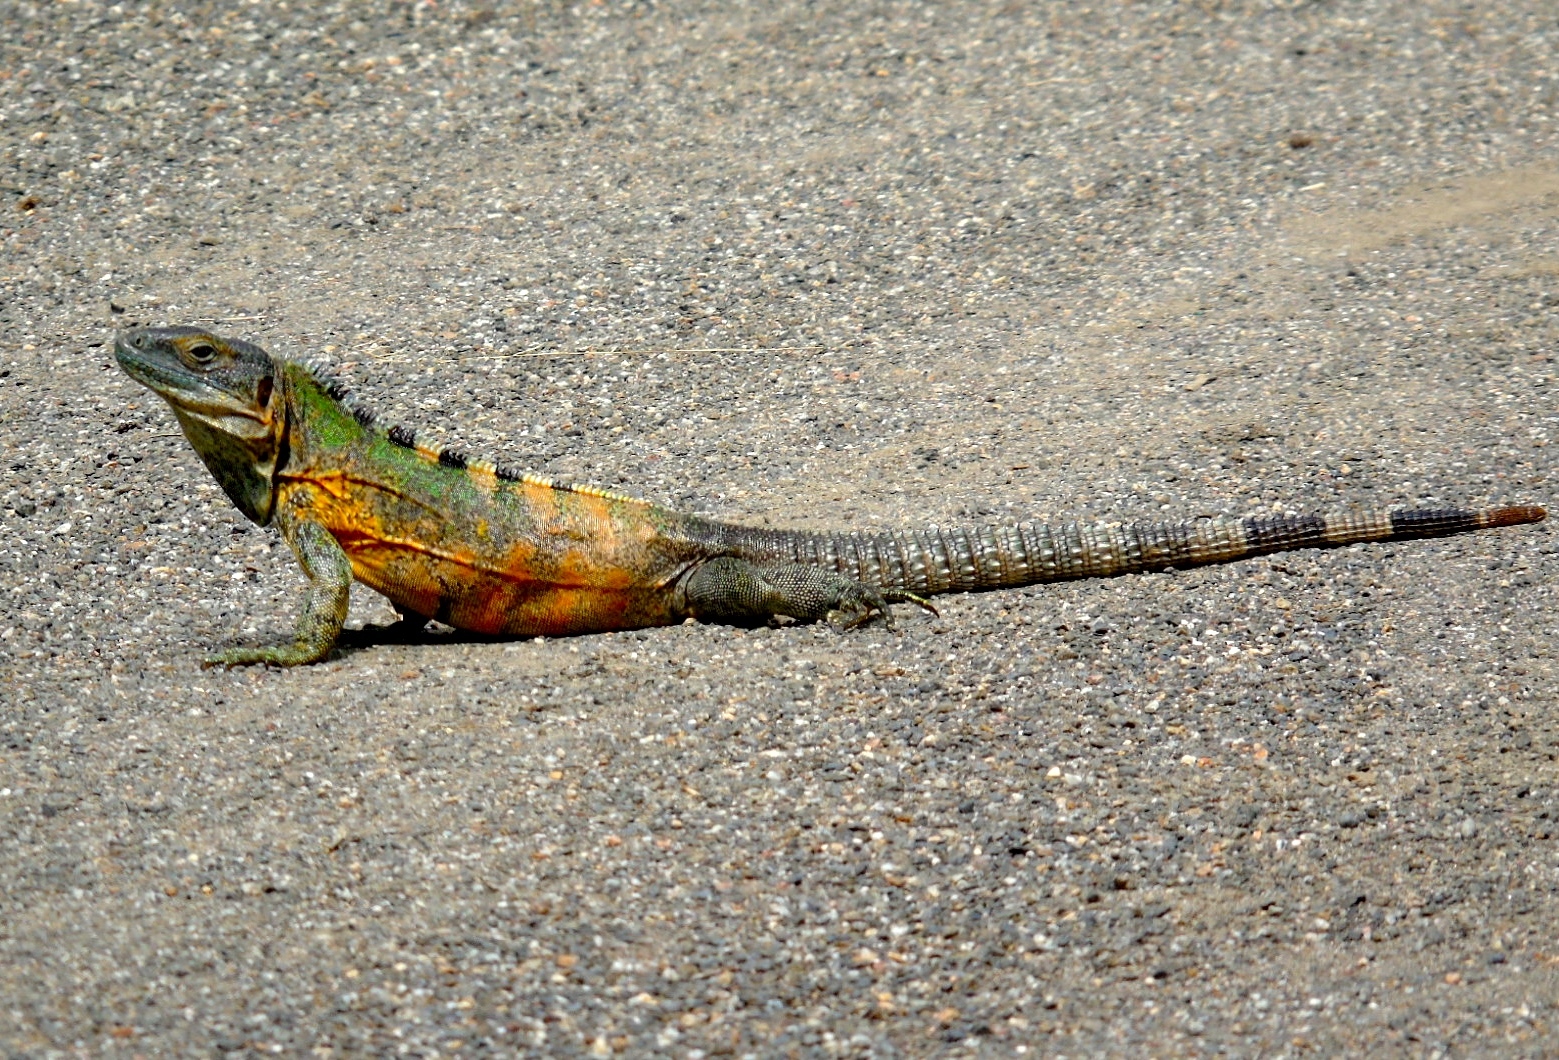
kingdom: Animalia
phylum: Chordata
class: Squamata
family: Iguanidae
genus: Ctenosaura
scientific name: Ctenosaura pectinata
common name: Guerreran spiny-tailed iguana
